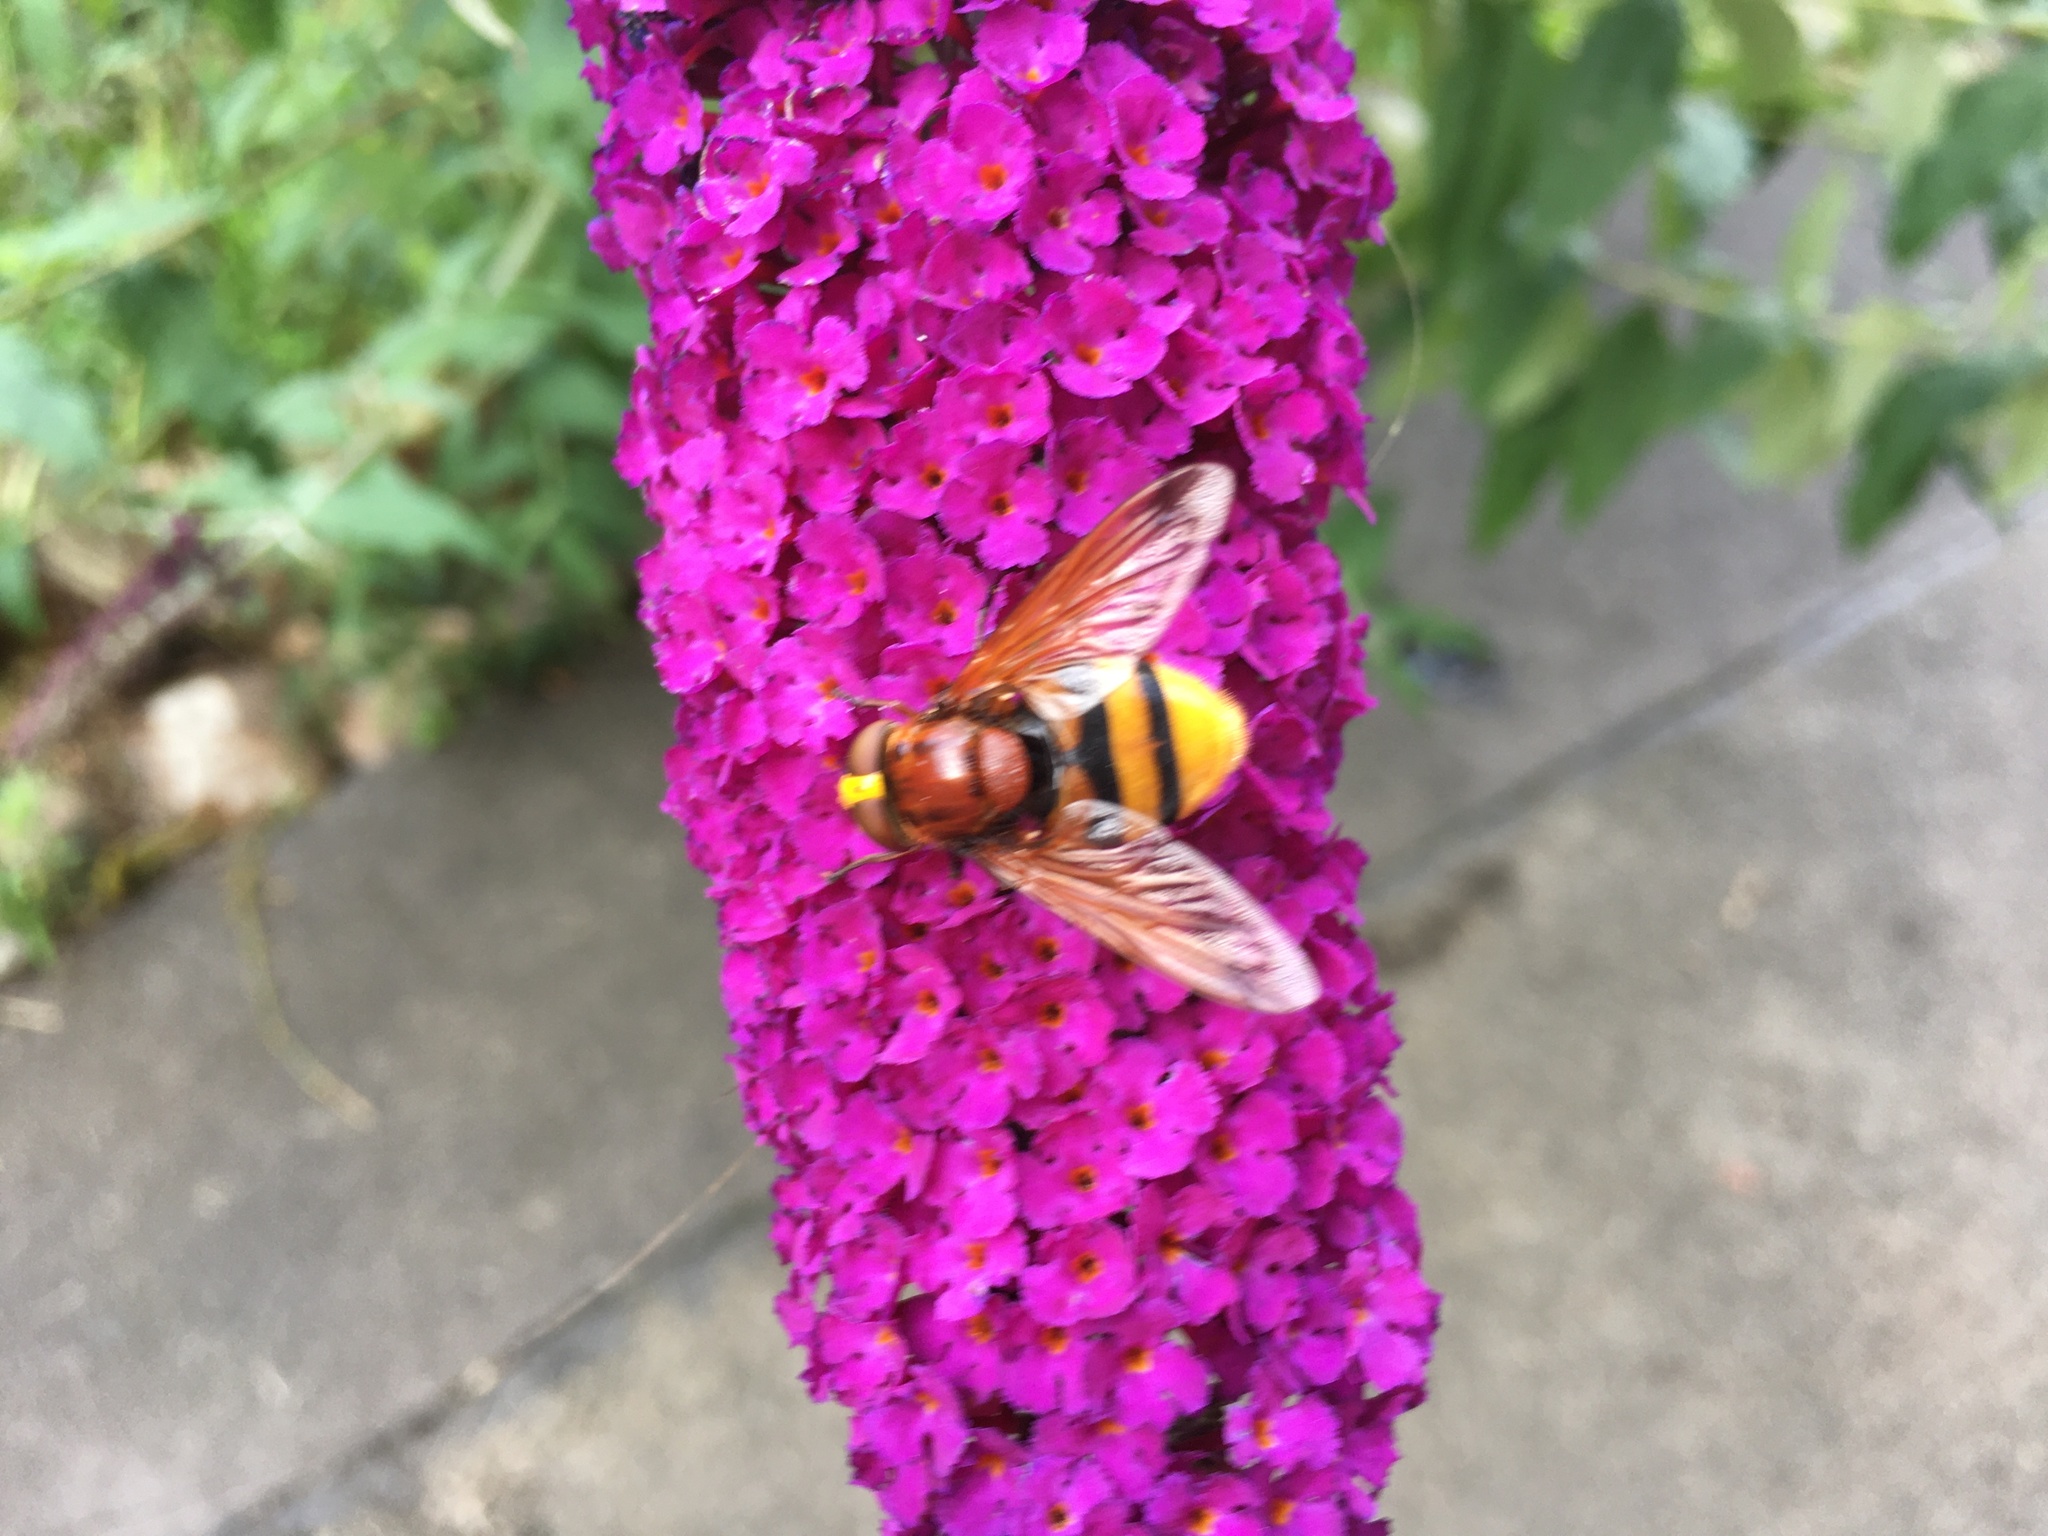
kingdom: Animalia
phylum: Arthropoda
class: Insecta
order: Diptera
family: Syrphidae
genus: Volucella
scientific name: Volucella zonaria
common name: Hornet hoverfly
